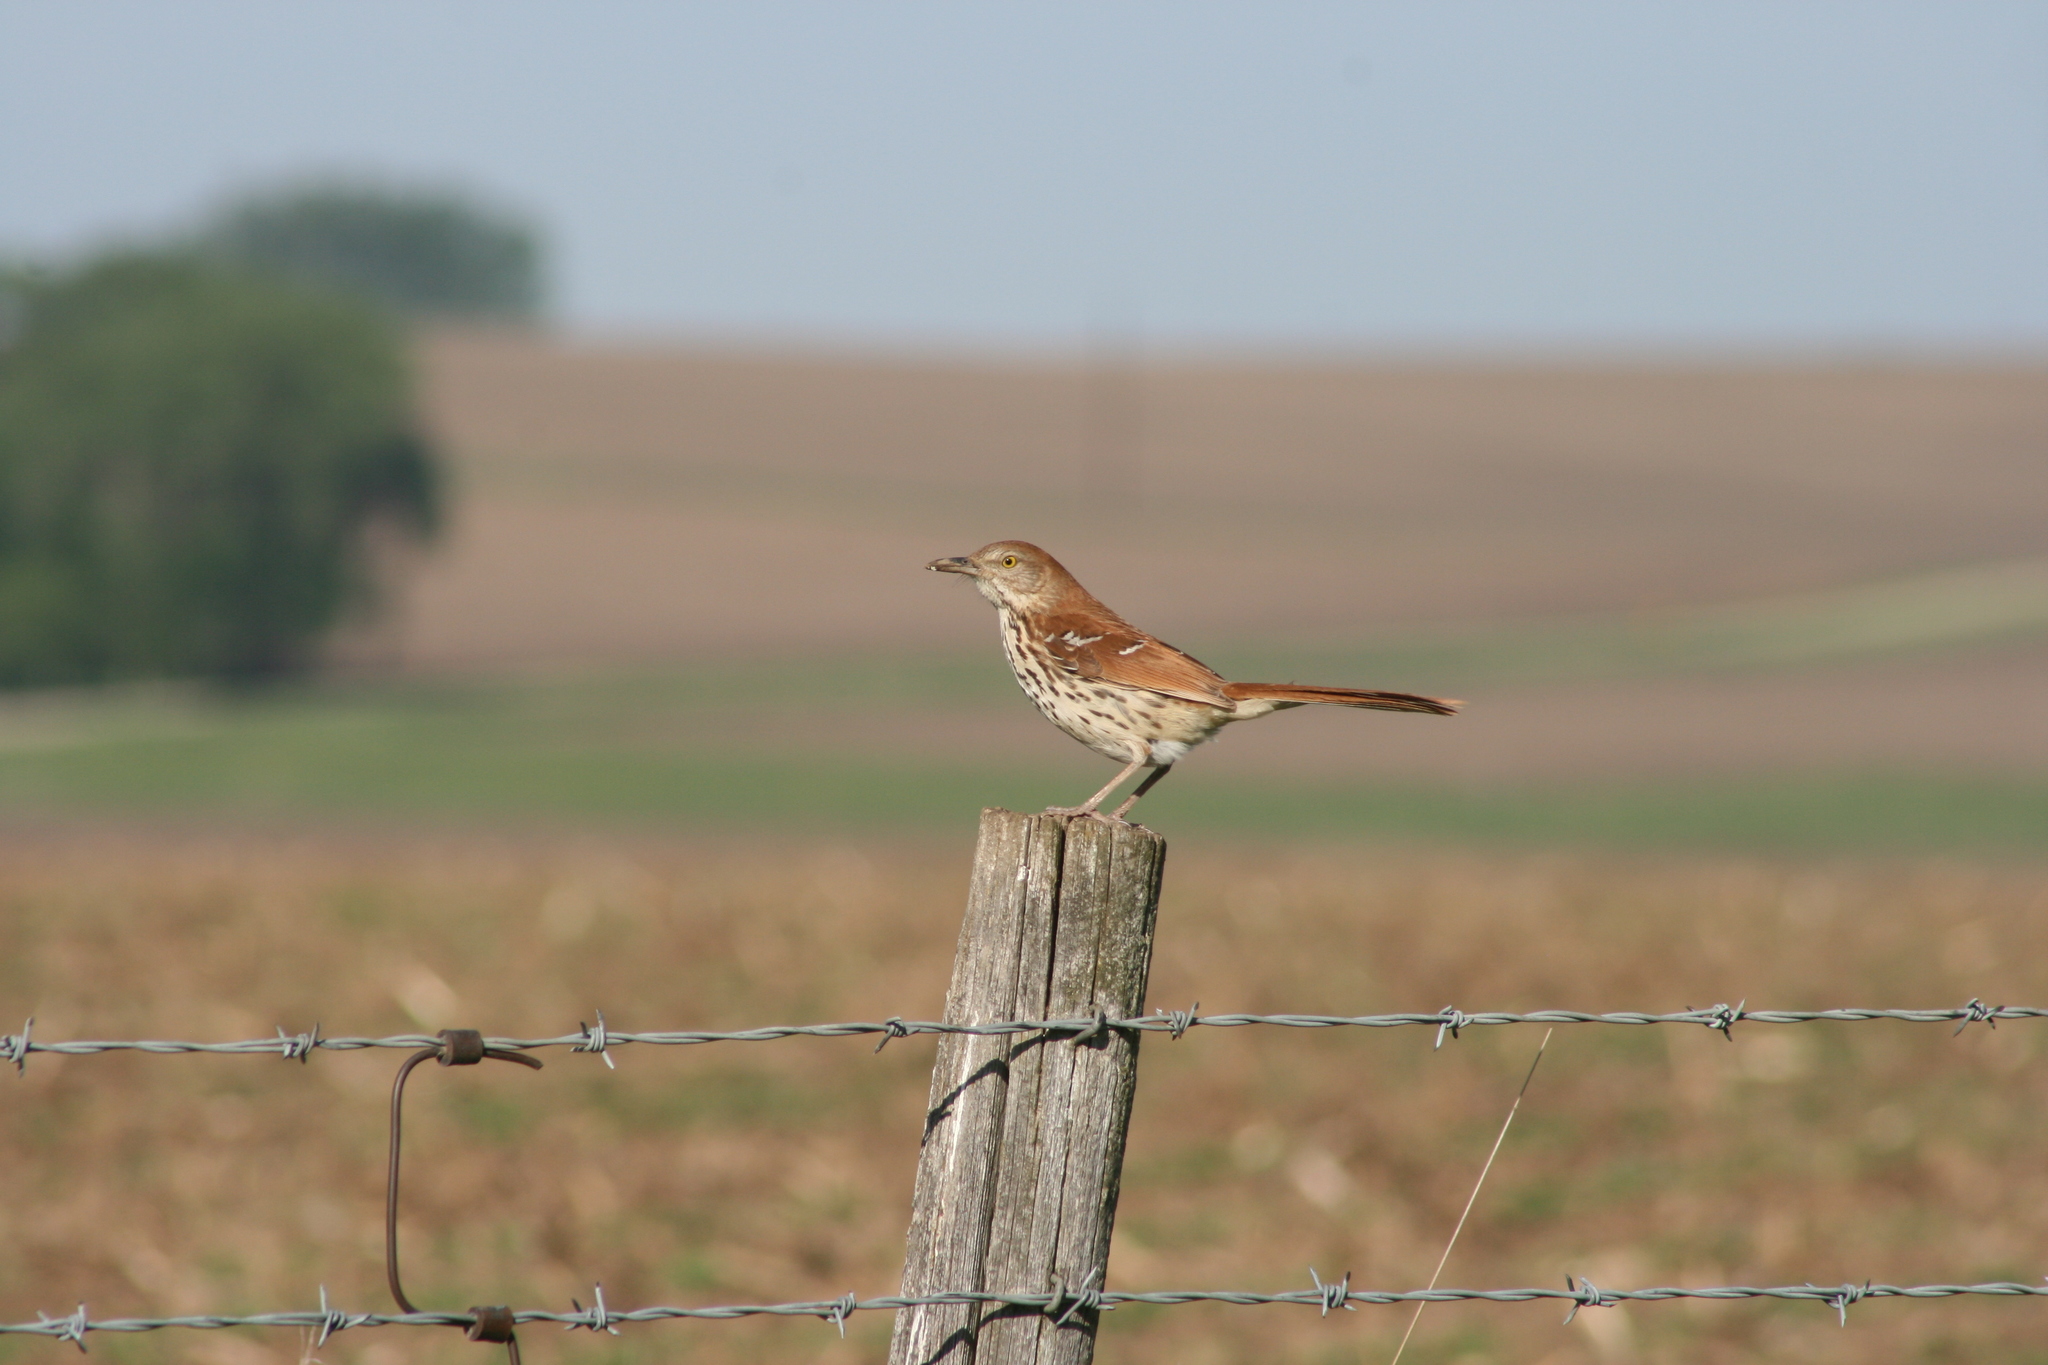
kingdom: Animalia
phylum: Chordata
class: Aves
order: Passeriformes
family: Mimidae
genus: Toxostoma
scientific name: Toxostoma rufum
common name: Brown thrasher
